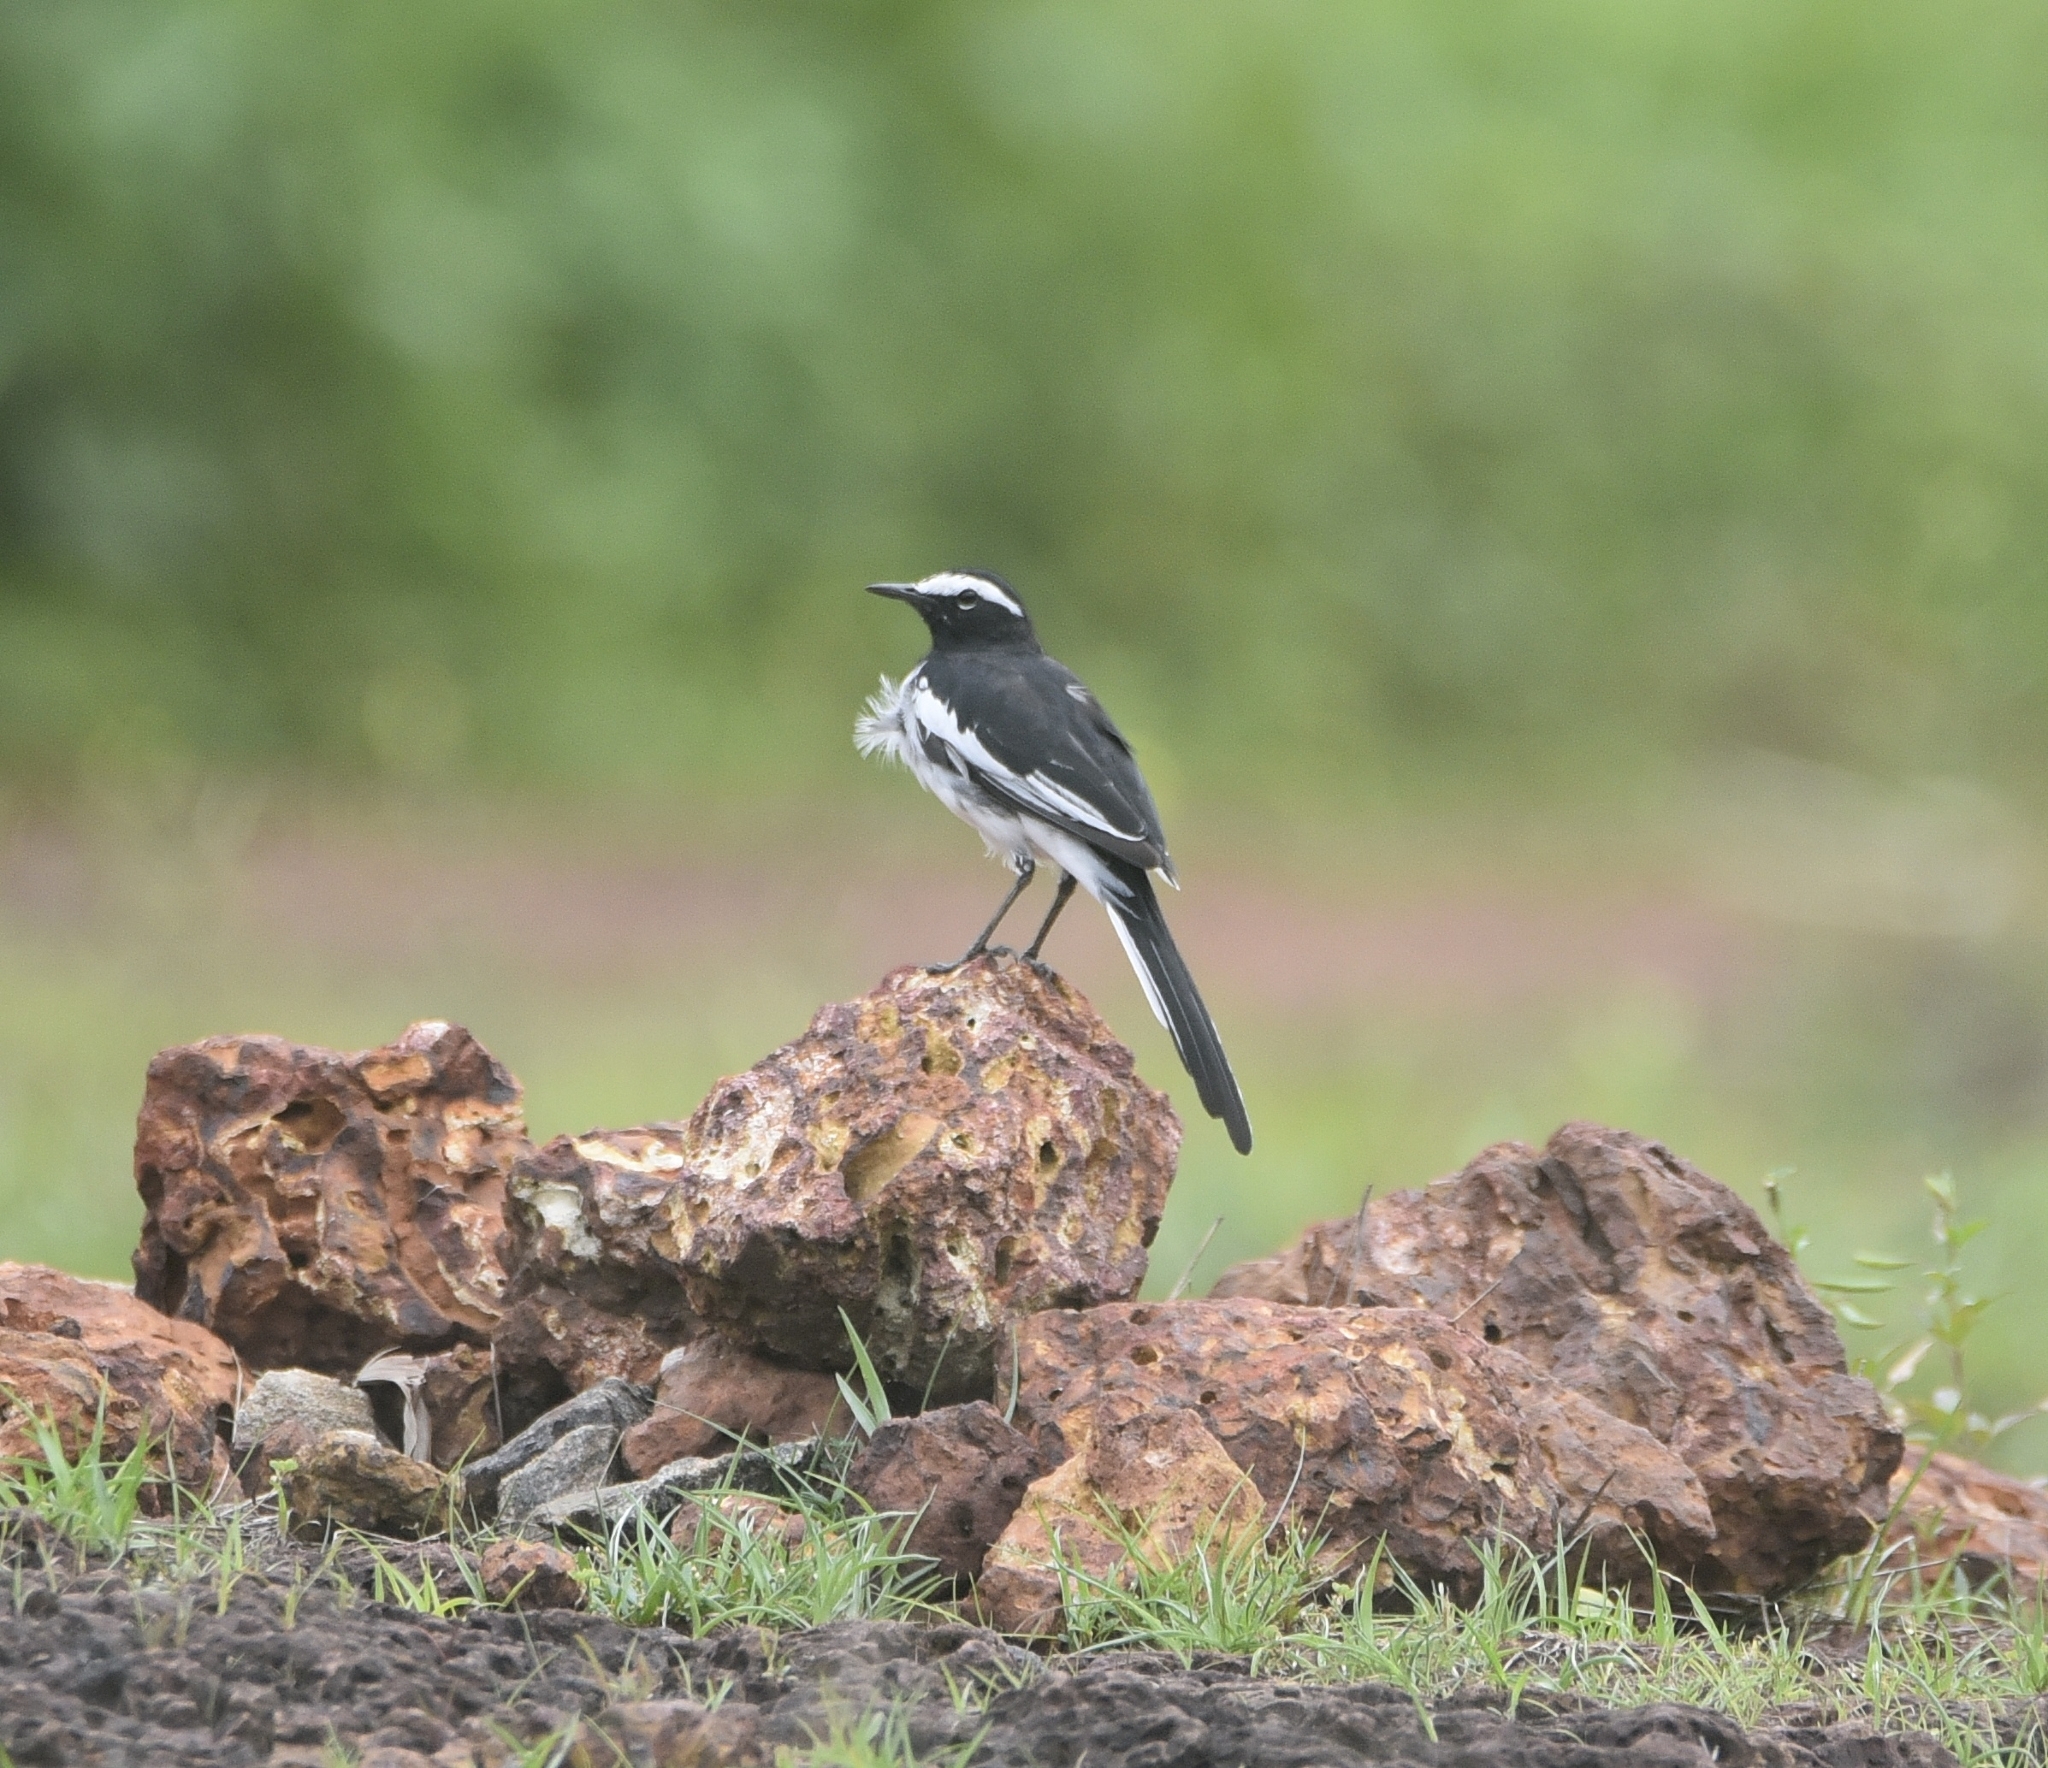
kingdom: Animalia
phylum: Chordata
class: Aves
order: Passeriformes
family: Motacillidae
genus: Motacilla
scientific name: Motacilla maderaspatensis
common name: White-browed wagtail
